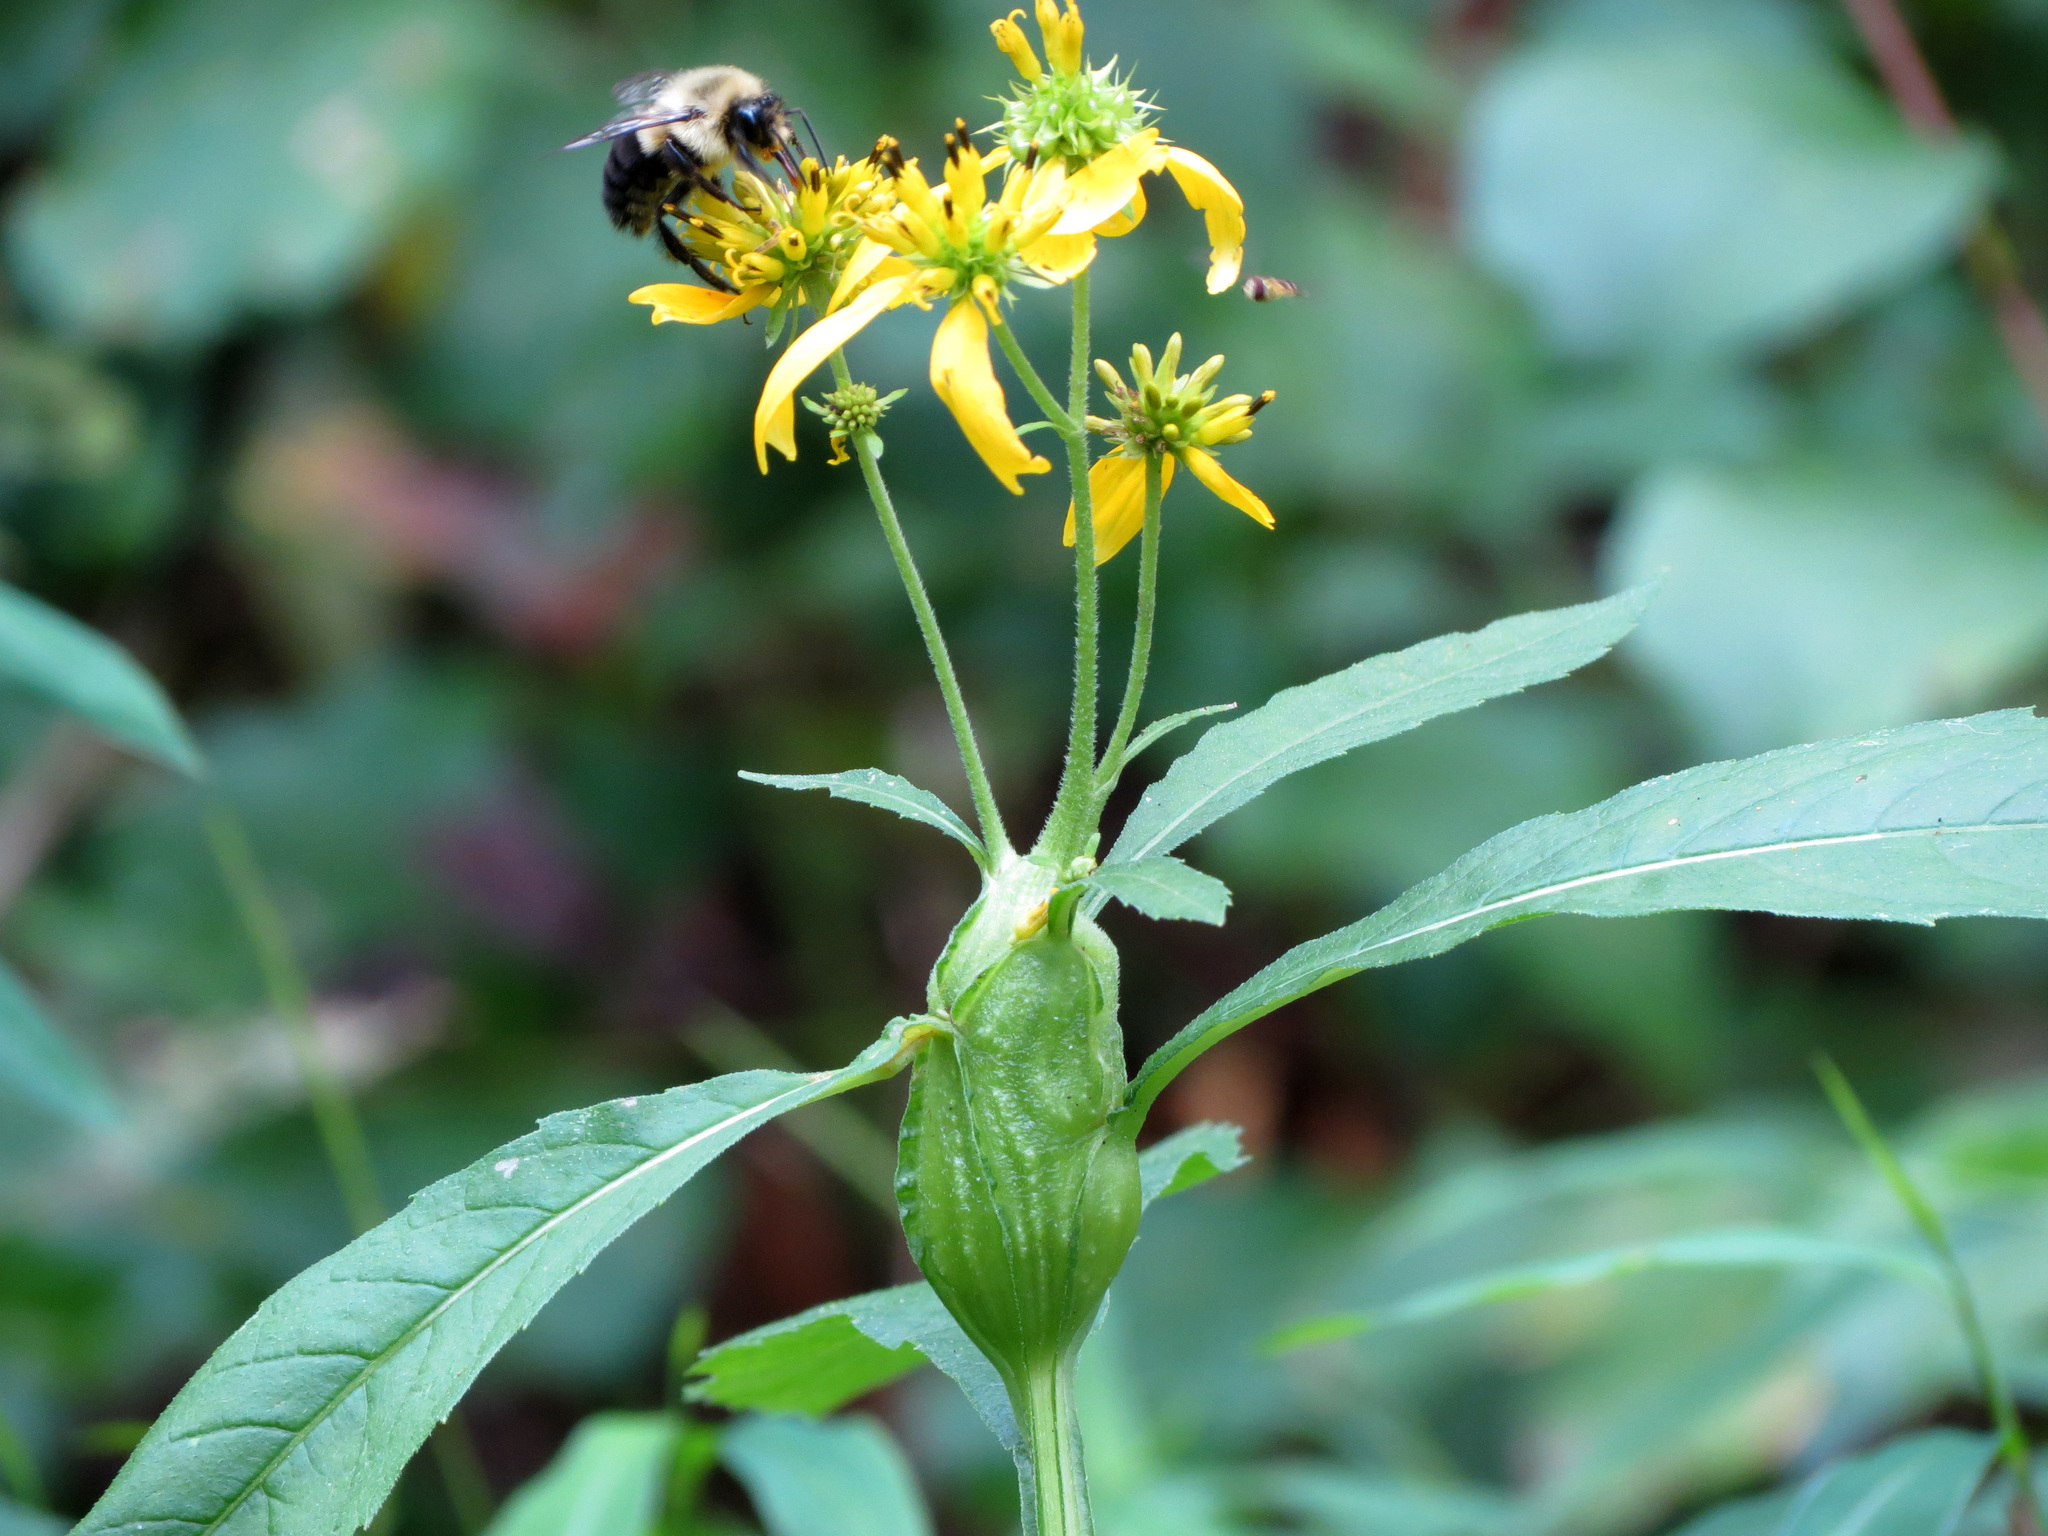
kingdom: Animalia
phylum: Arthropoda
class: Insecta
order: Diptera
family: Cecidomyiidae
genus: Neolasioptera
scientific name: Neolasioptera verbesinae
